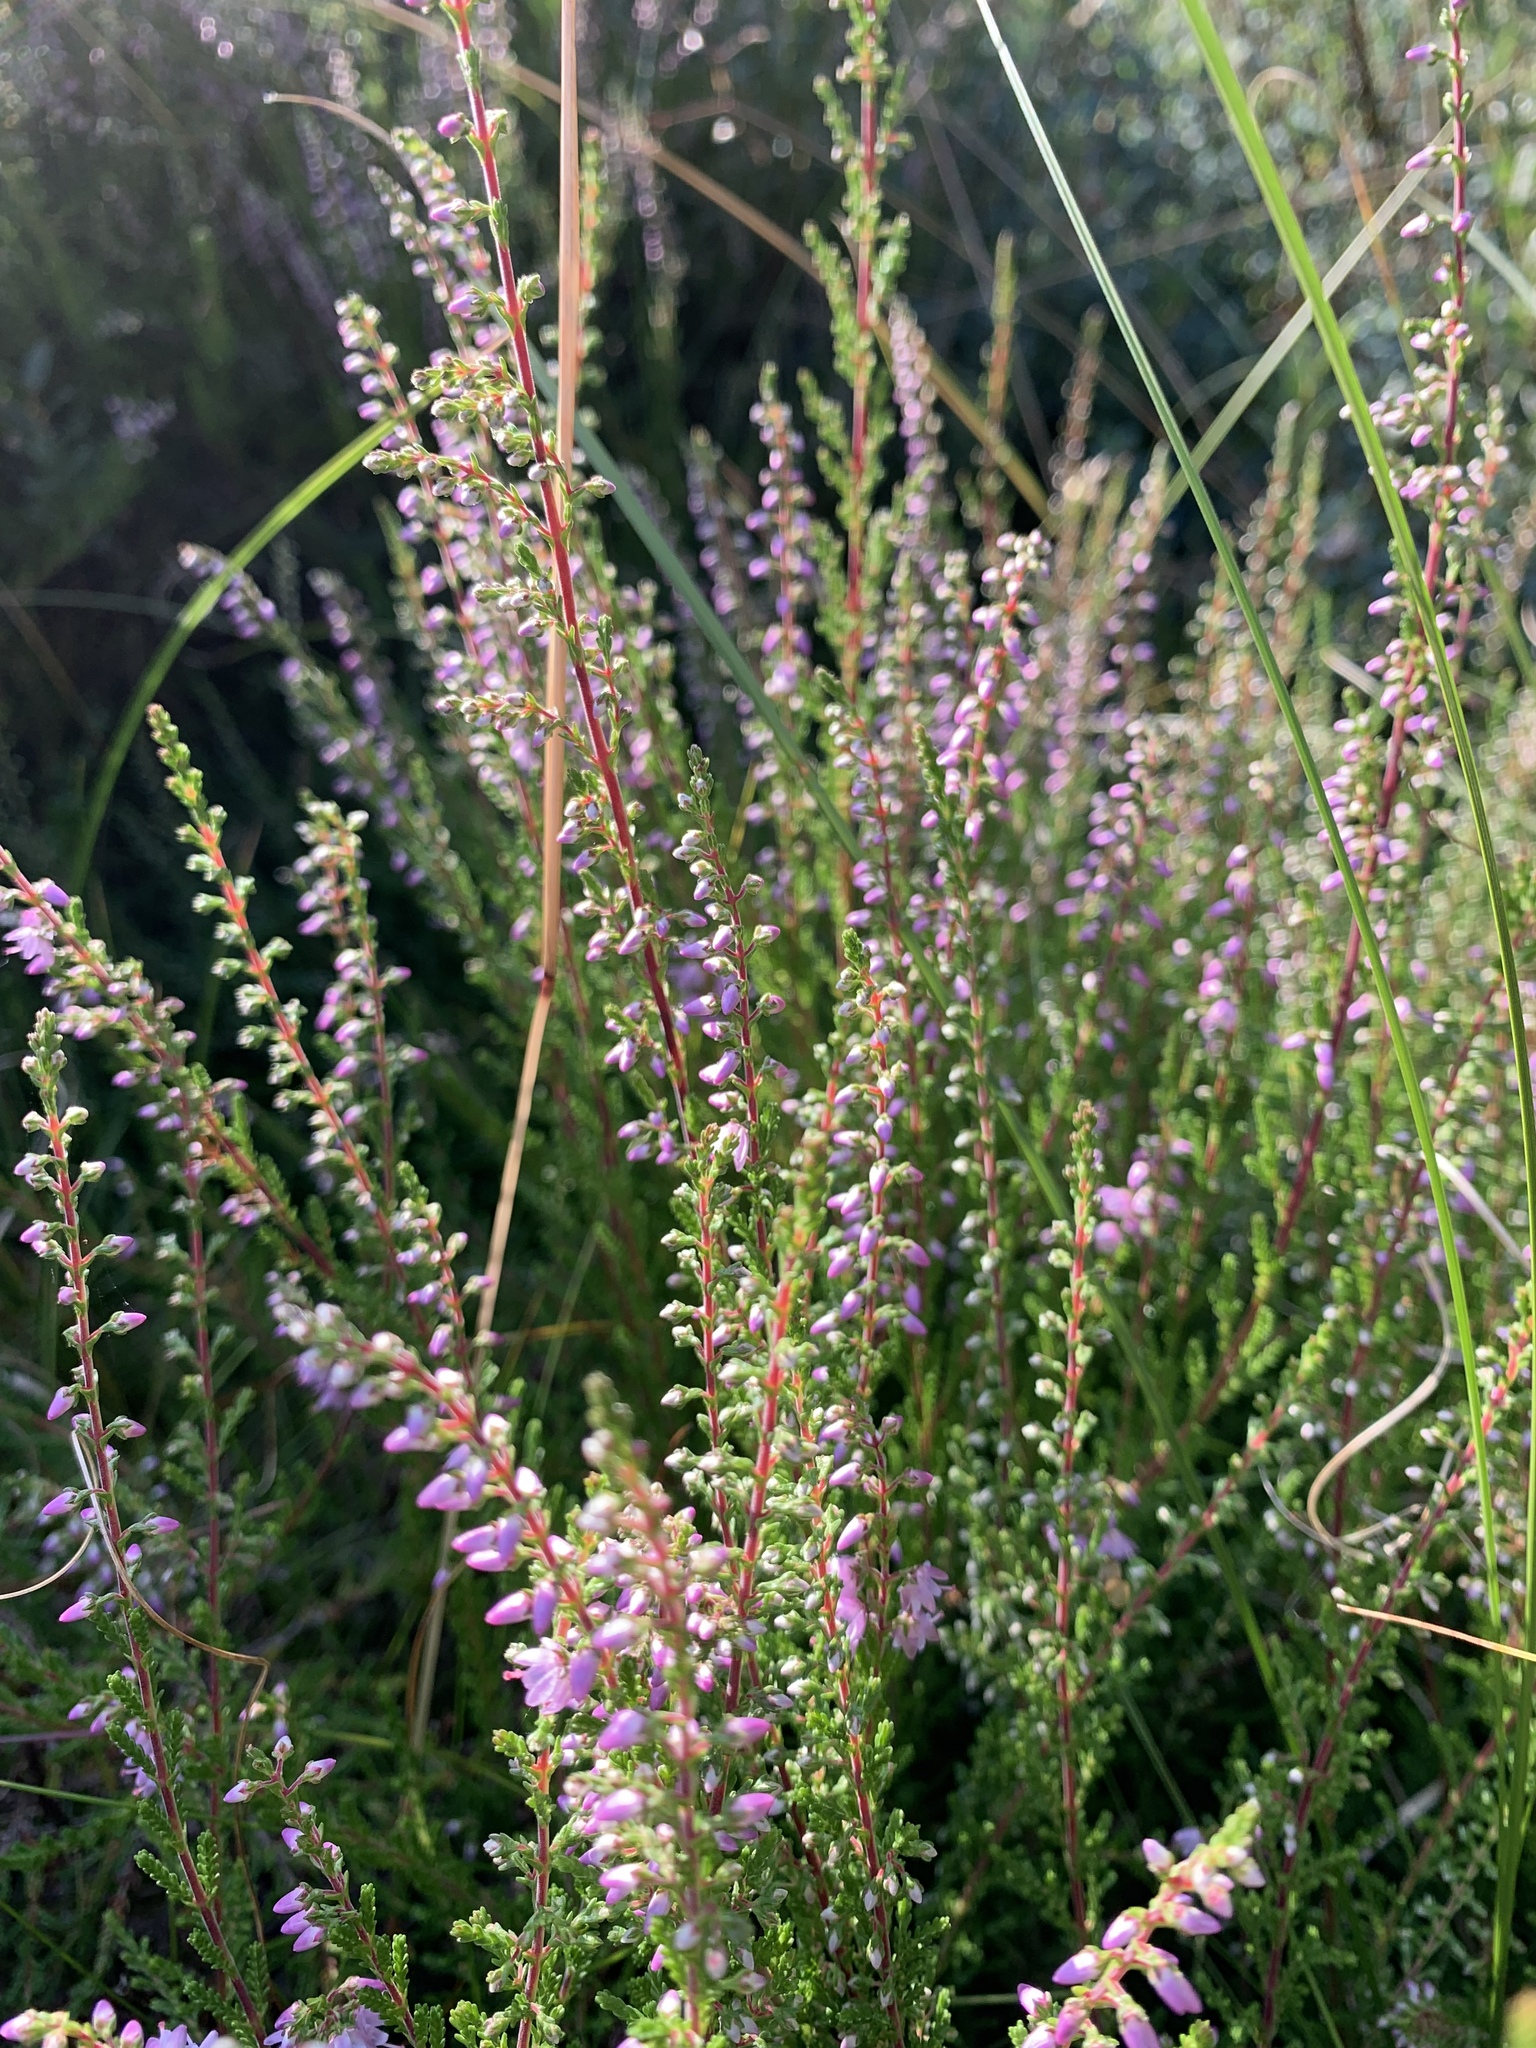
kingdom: Plantae
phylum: Tracheophyta
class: Magnoliopsida
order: Ericales
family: Ericaceae
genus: Calluna
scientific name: Calluna vulgaris
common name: Heather
